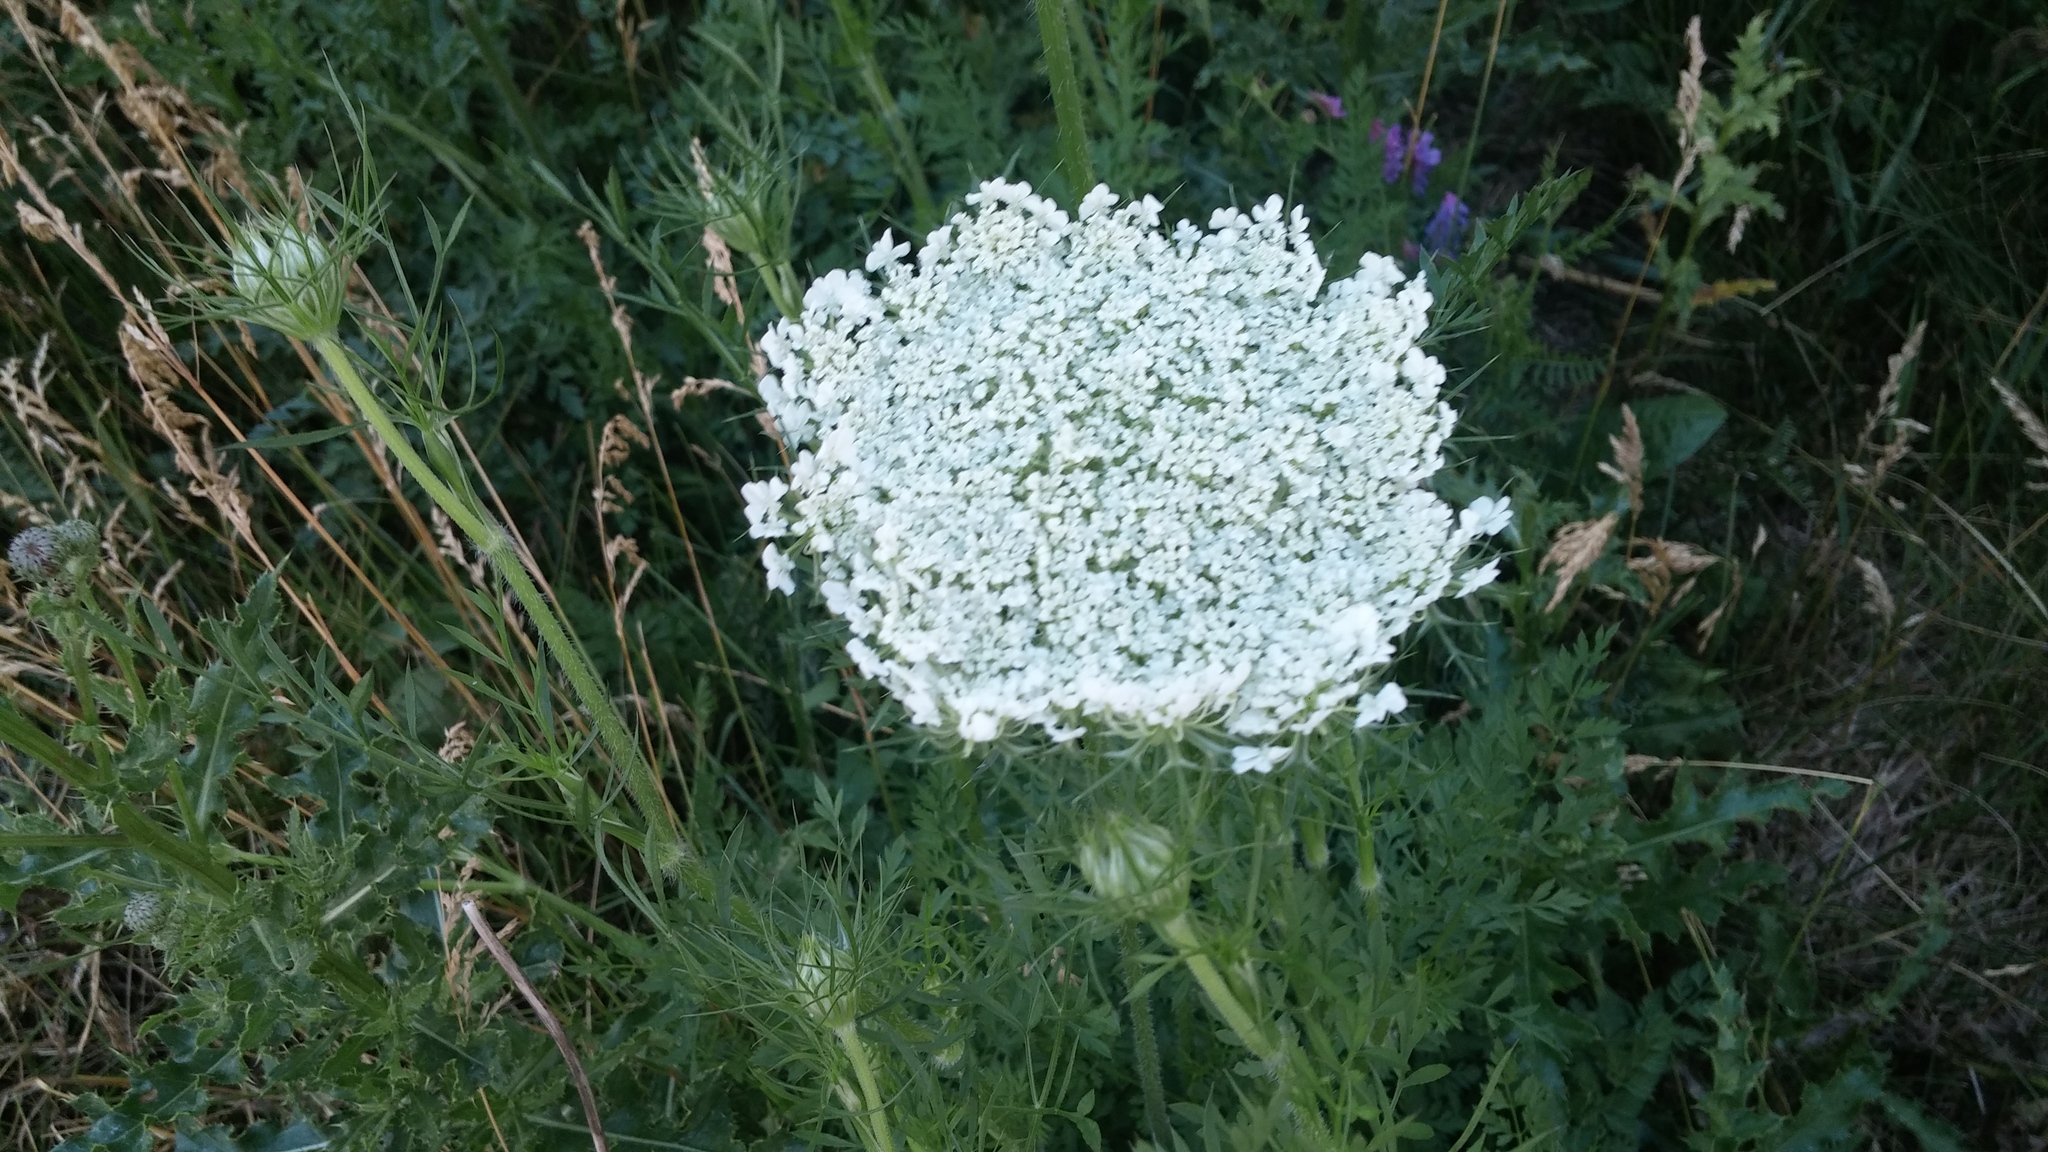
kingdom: Plantae
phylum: Tracheophyta
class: Magnoliopsida
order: Apiales
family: Apiaceae
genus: Daucus
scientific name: Daucus carota
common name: Wild carrot
